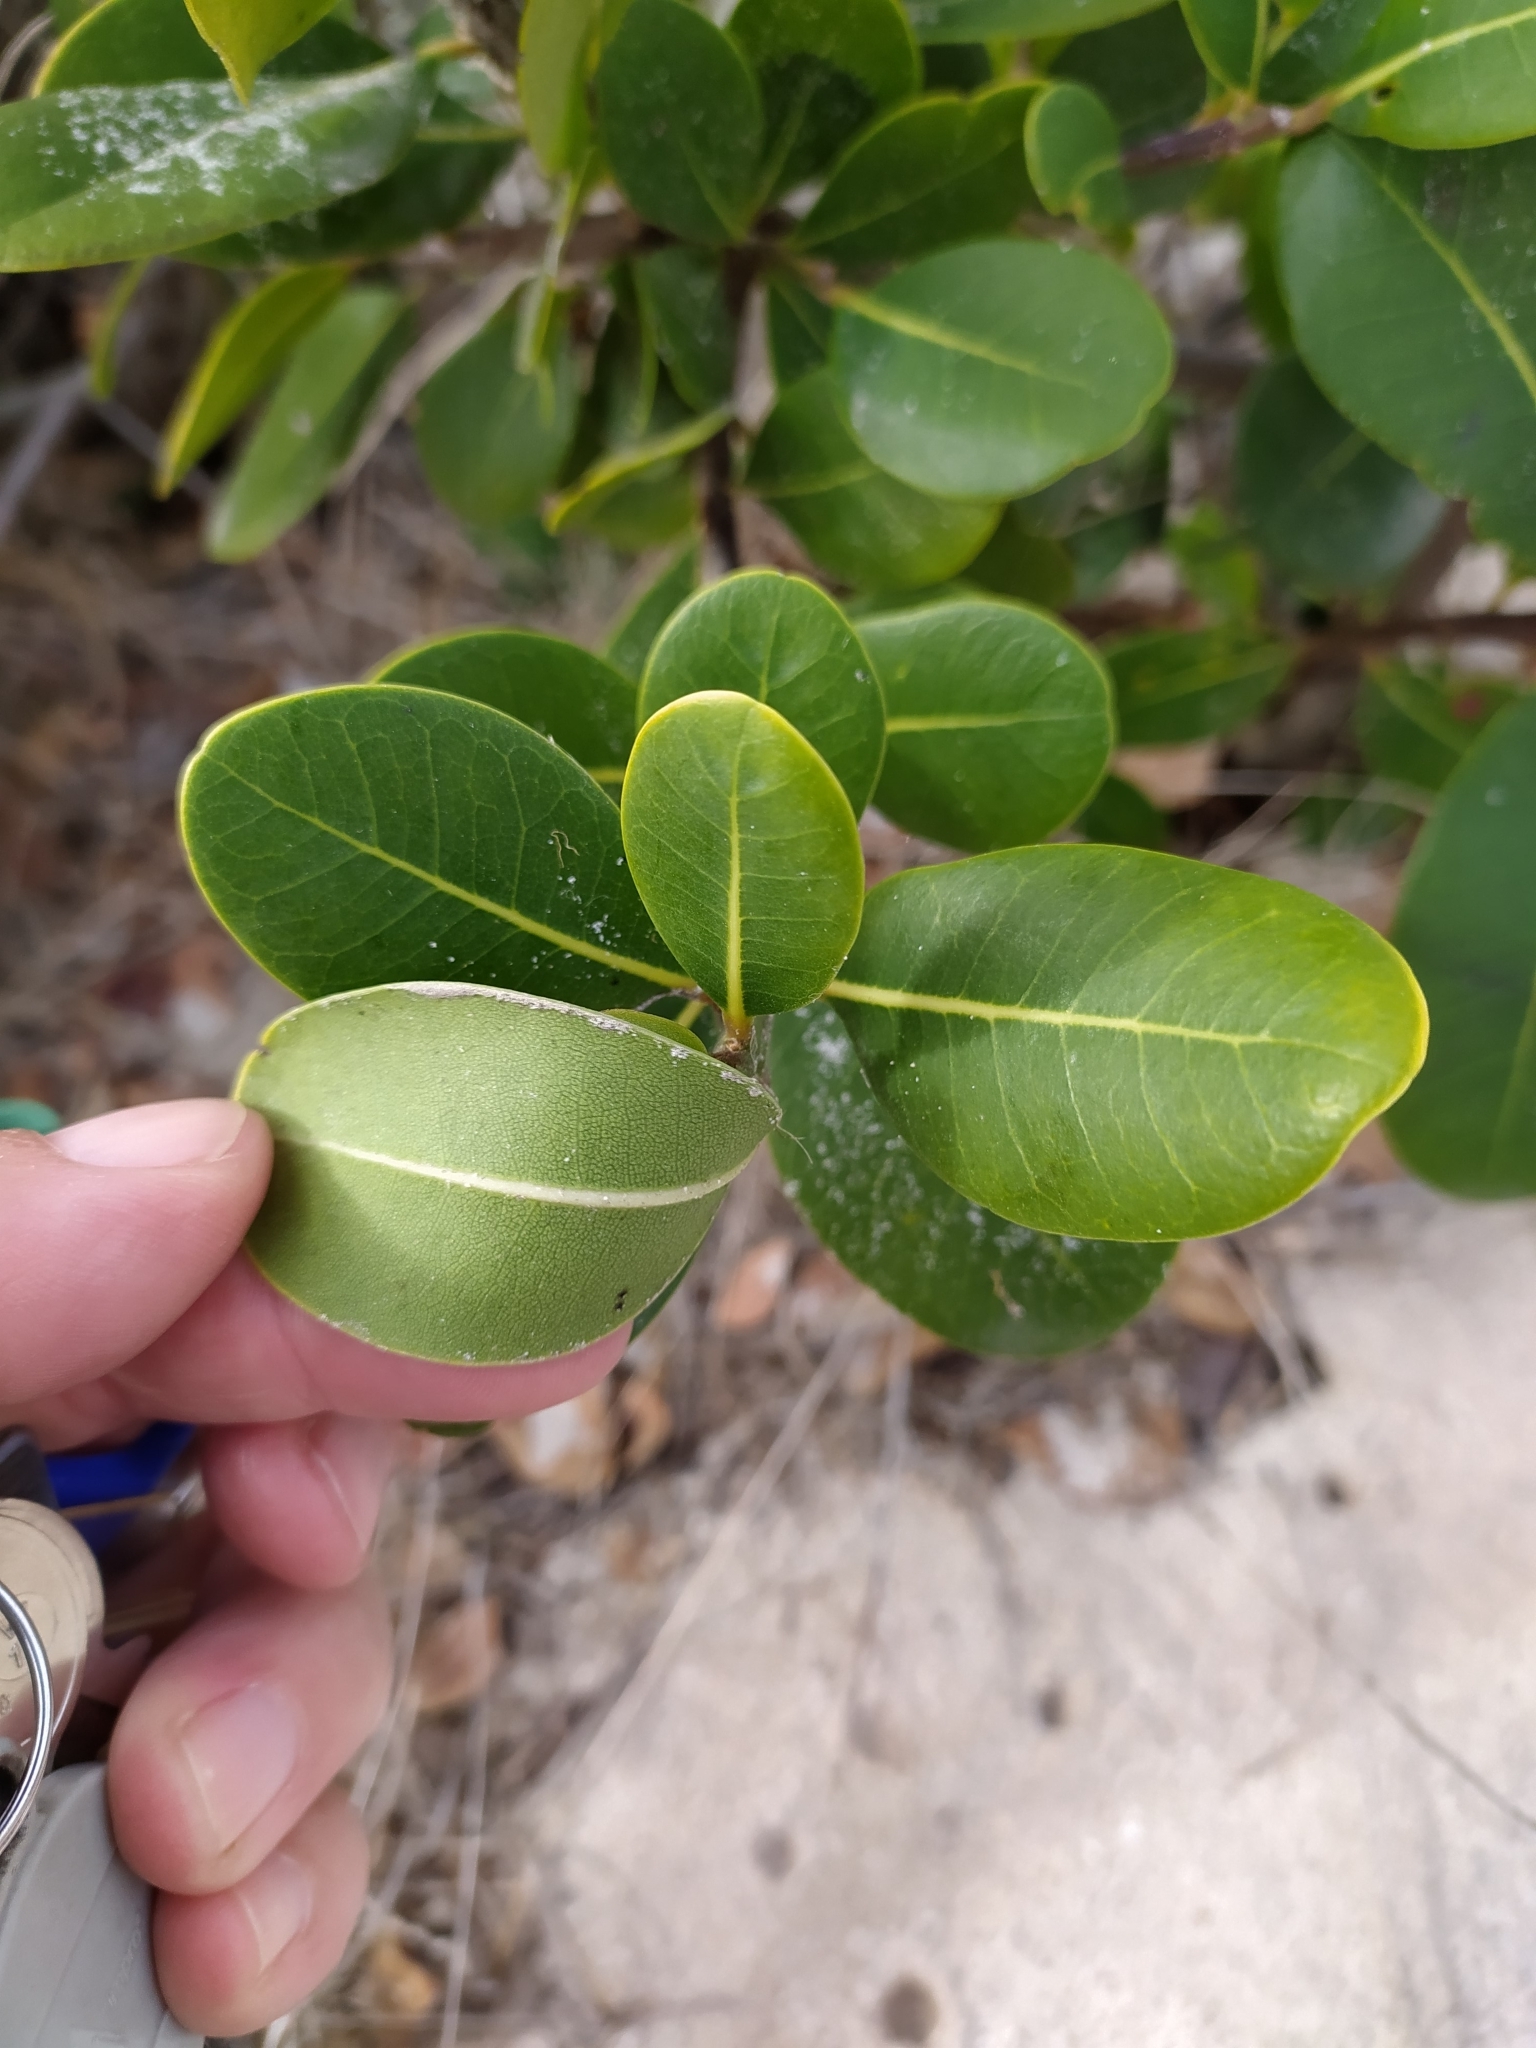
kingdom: Plantae
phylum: Tracheophyta
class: Magnoliopsida
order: Ericales
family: Sapotaceae
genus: Sideroxylon
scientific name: Sideroxylon inerme
